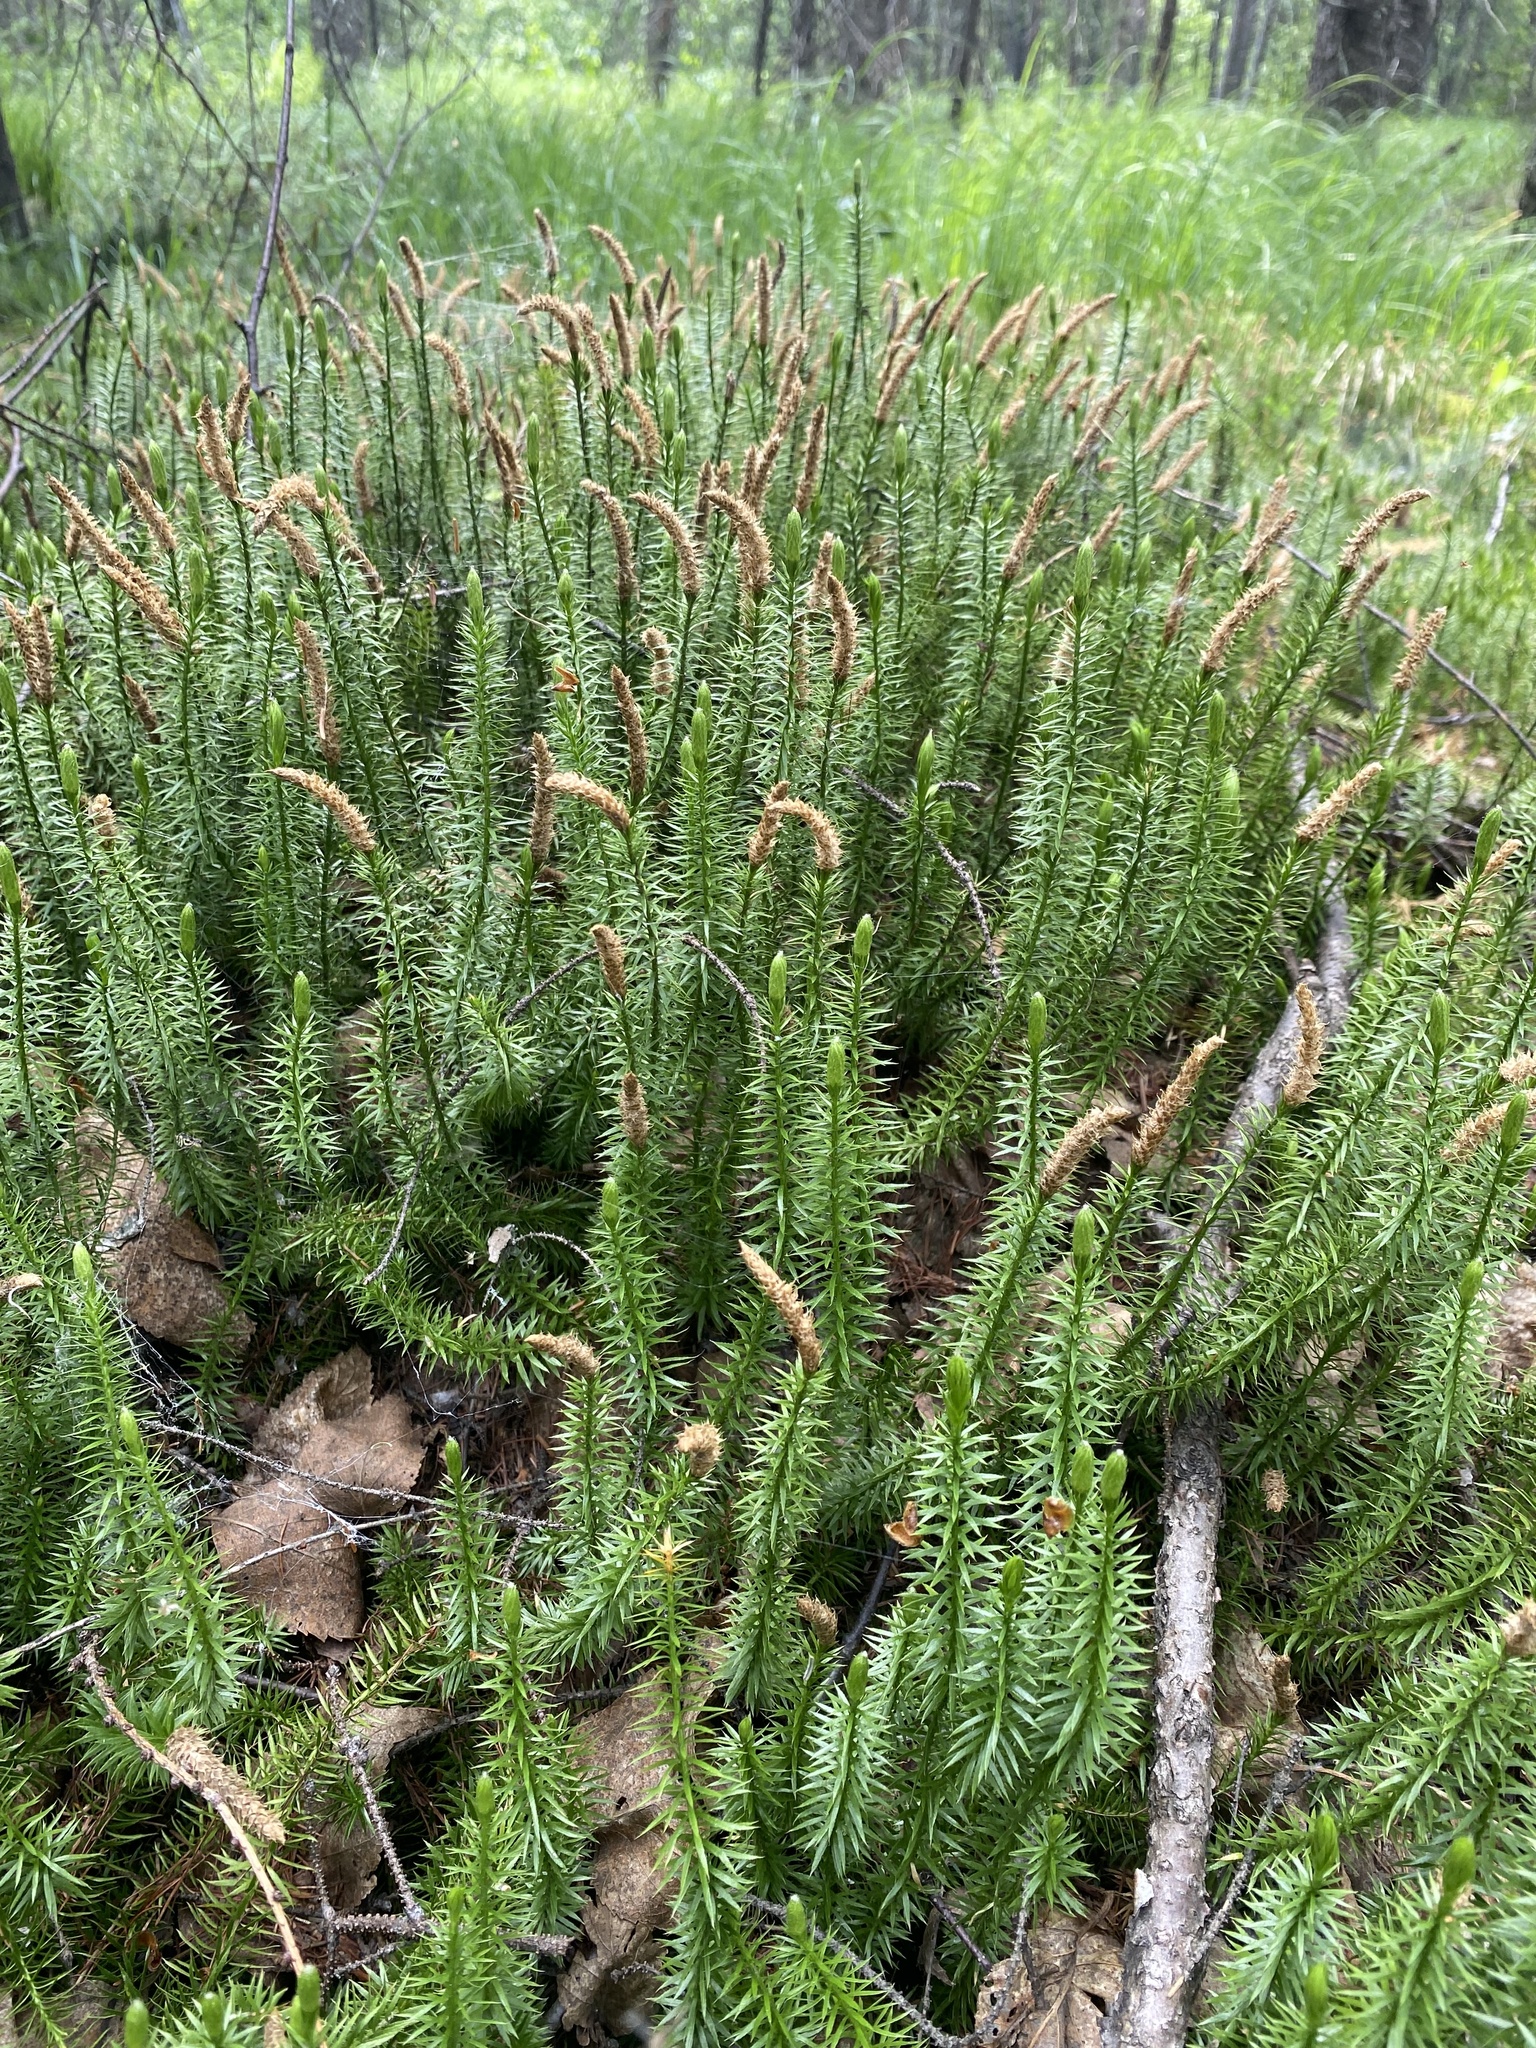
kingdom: Plantae
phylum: Tracheophyta
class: Lycopodiopsida
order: Lycopodiales
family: Lycopodiaceae
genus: Spinulum
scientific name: Spinulum annotinum
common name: Interrupted club-moss
